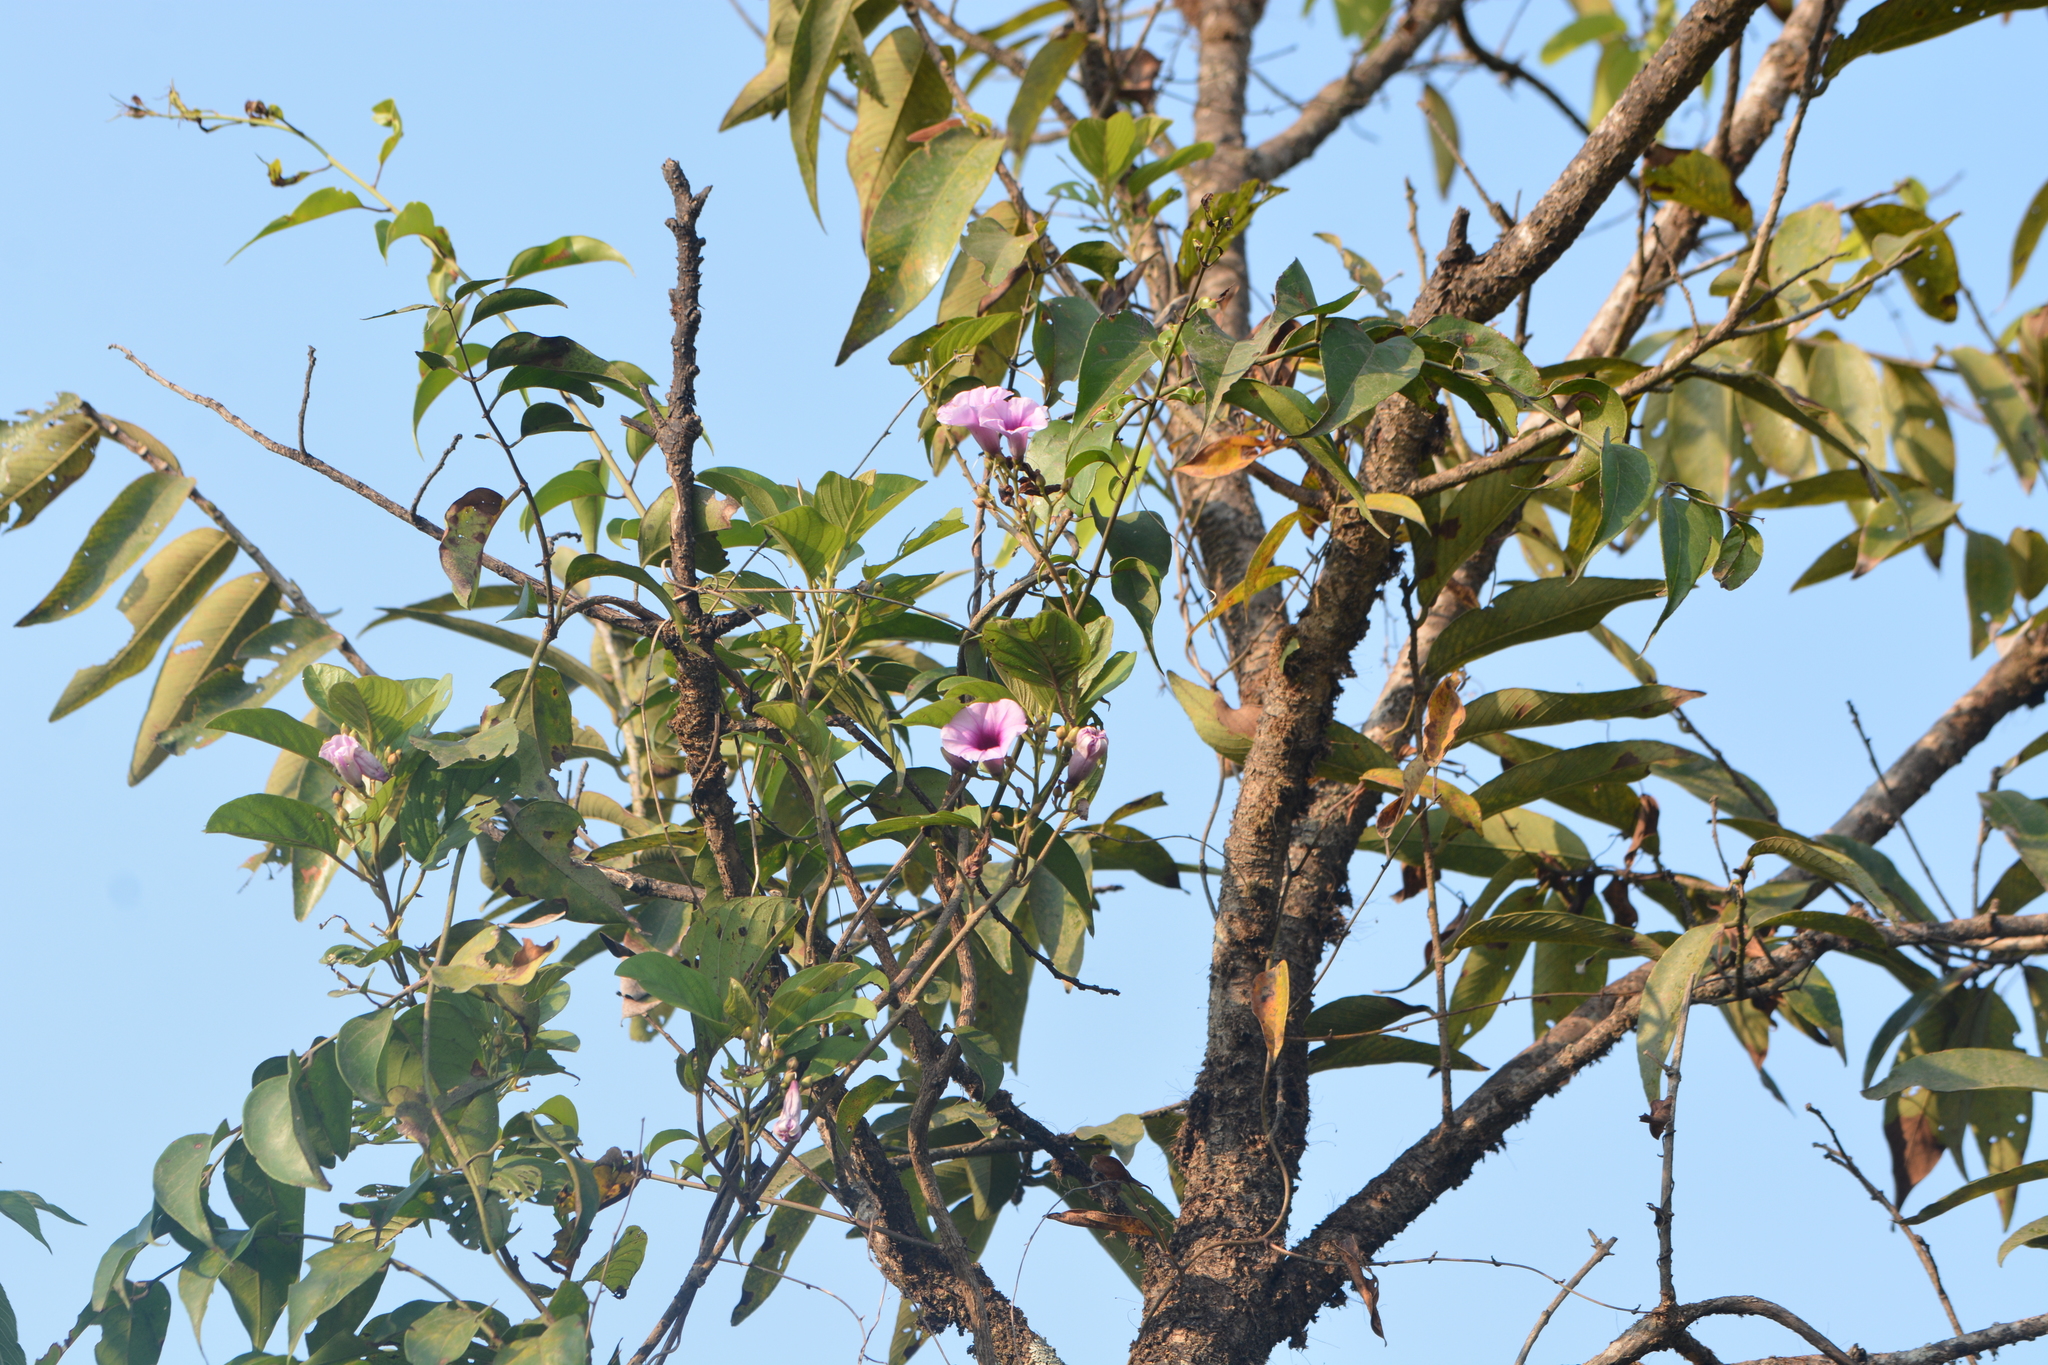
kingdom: Plantae
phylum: Tracheophyta
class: Magnoliopsida
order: Solanales
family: Convolvulaceae
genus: Argyreia
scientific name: Argyreia elliptica
